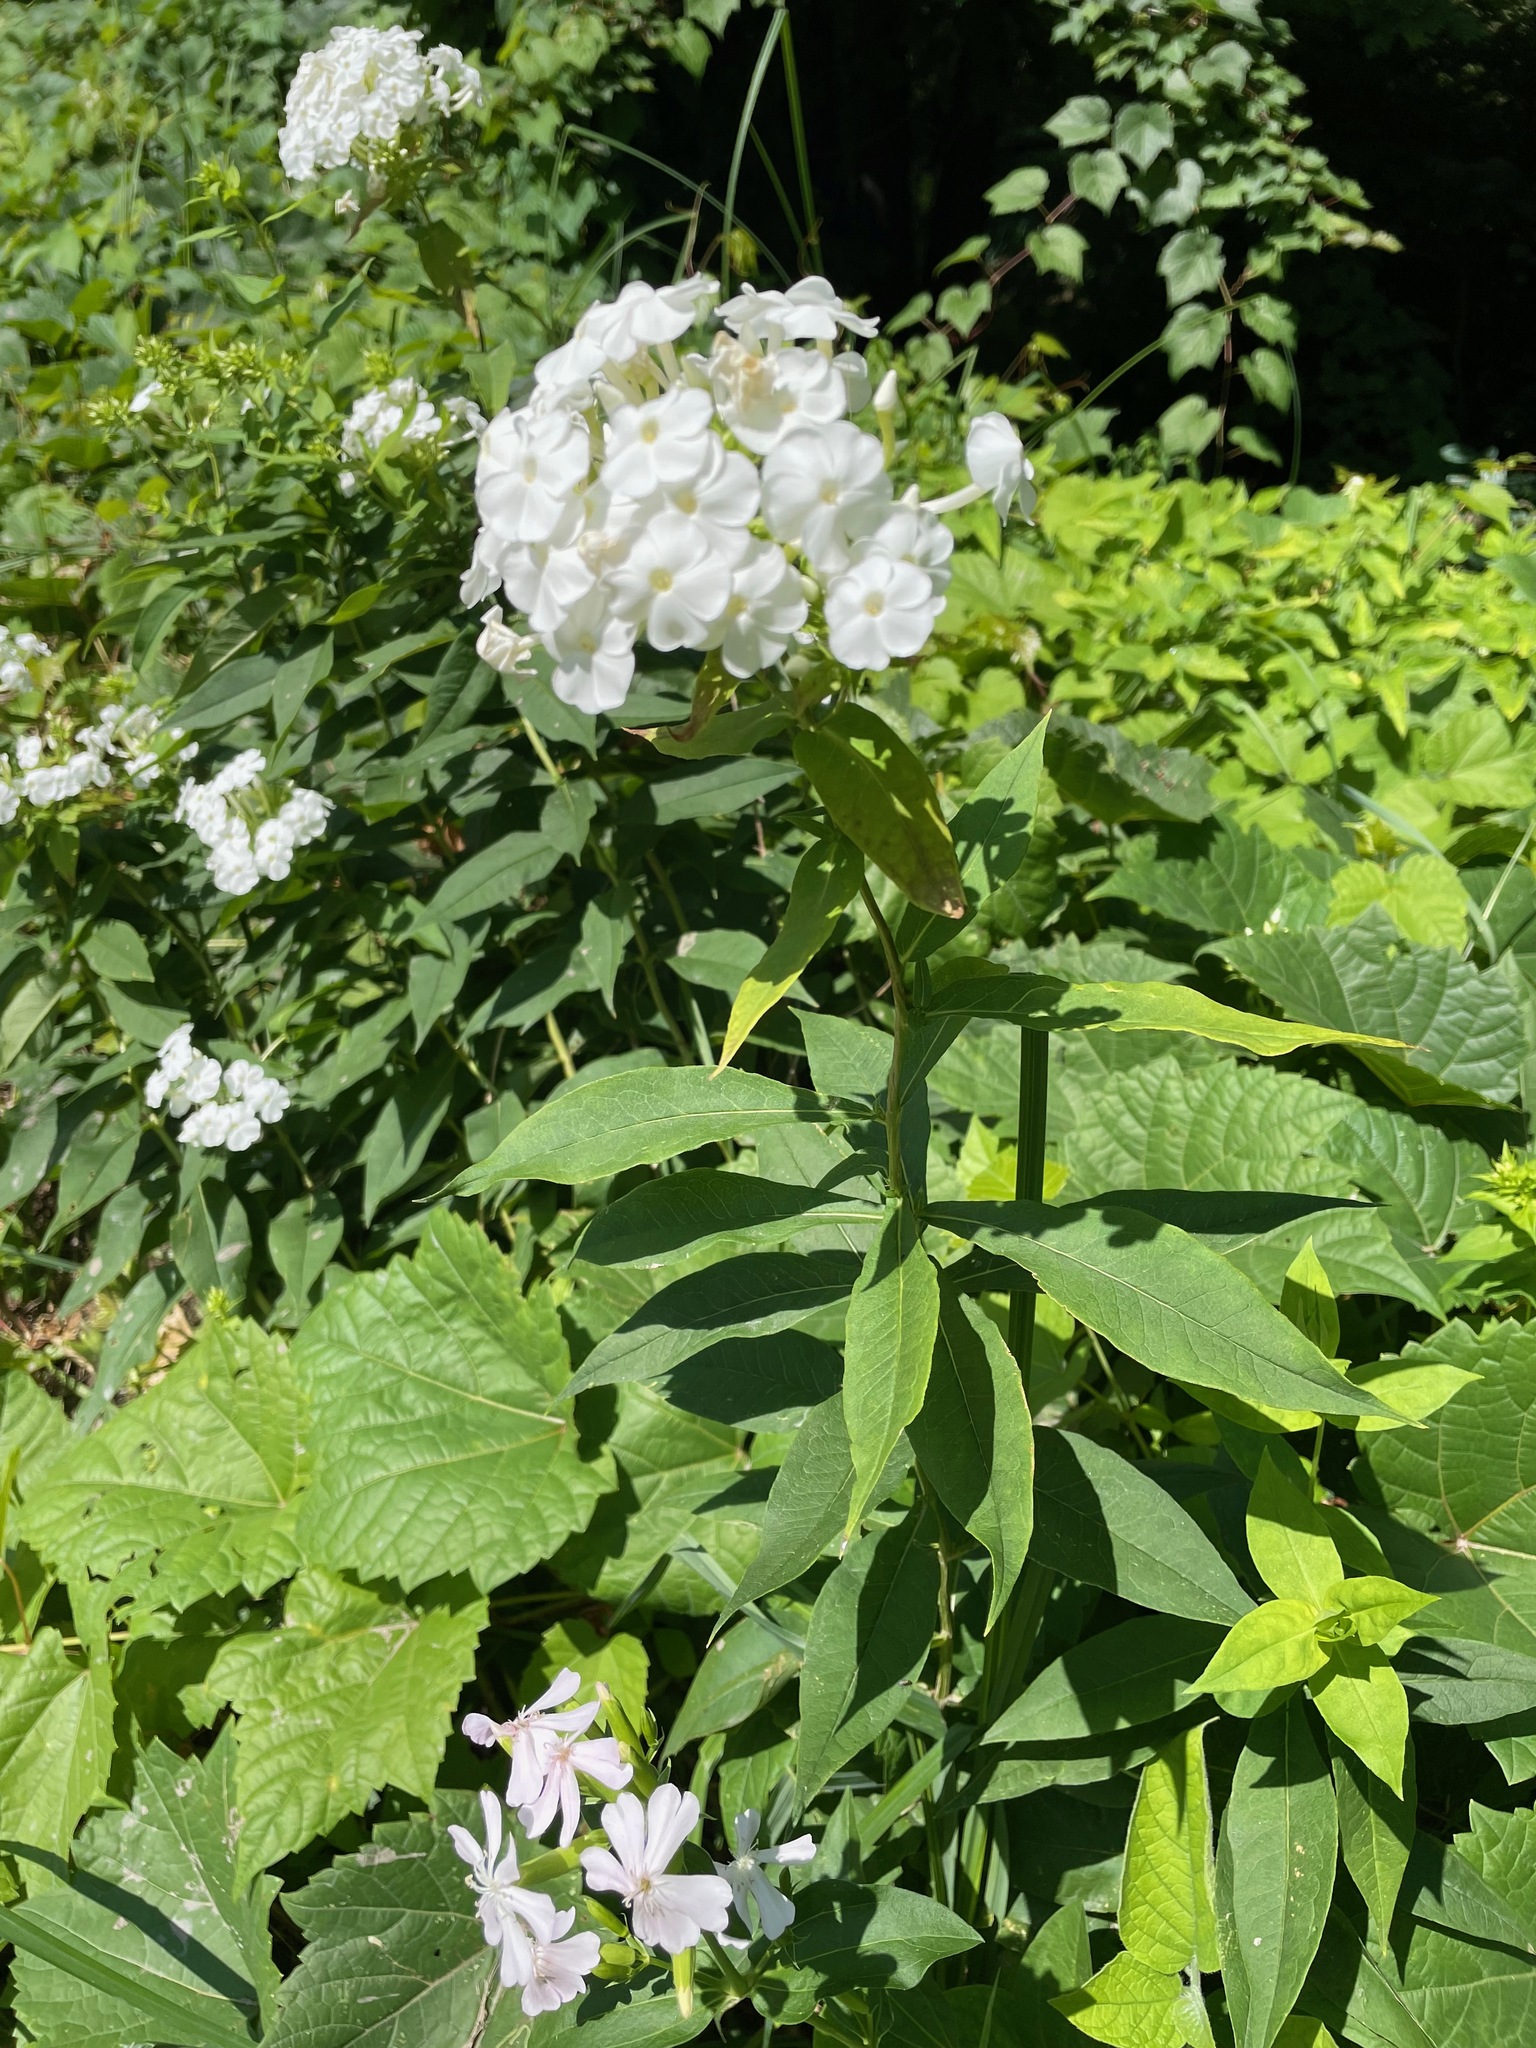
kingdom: Plantae
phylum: Tracheophyta
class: Magnoliopsida
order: Ericales
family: Polemoniaceae
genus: Phlox
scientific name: Phlox paniculata
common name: Fall phlox
